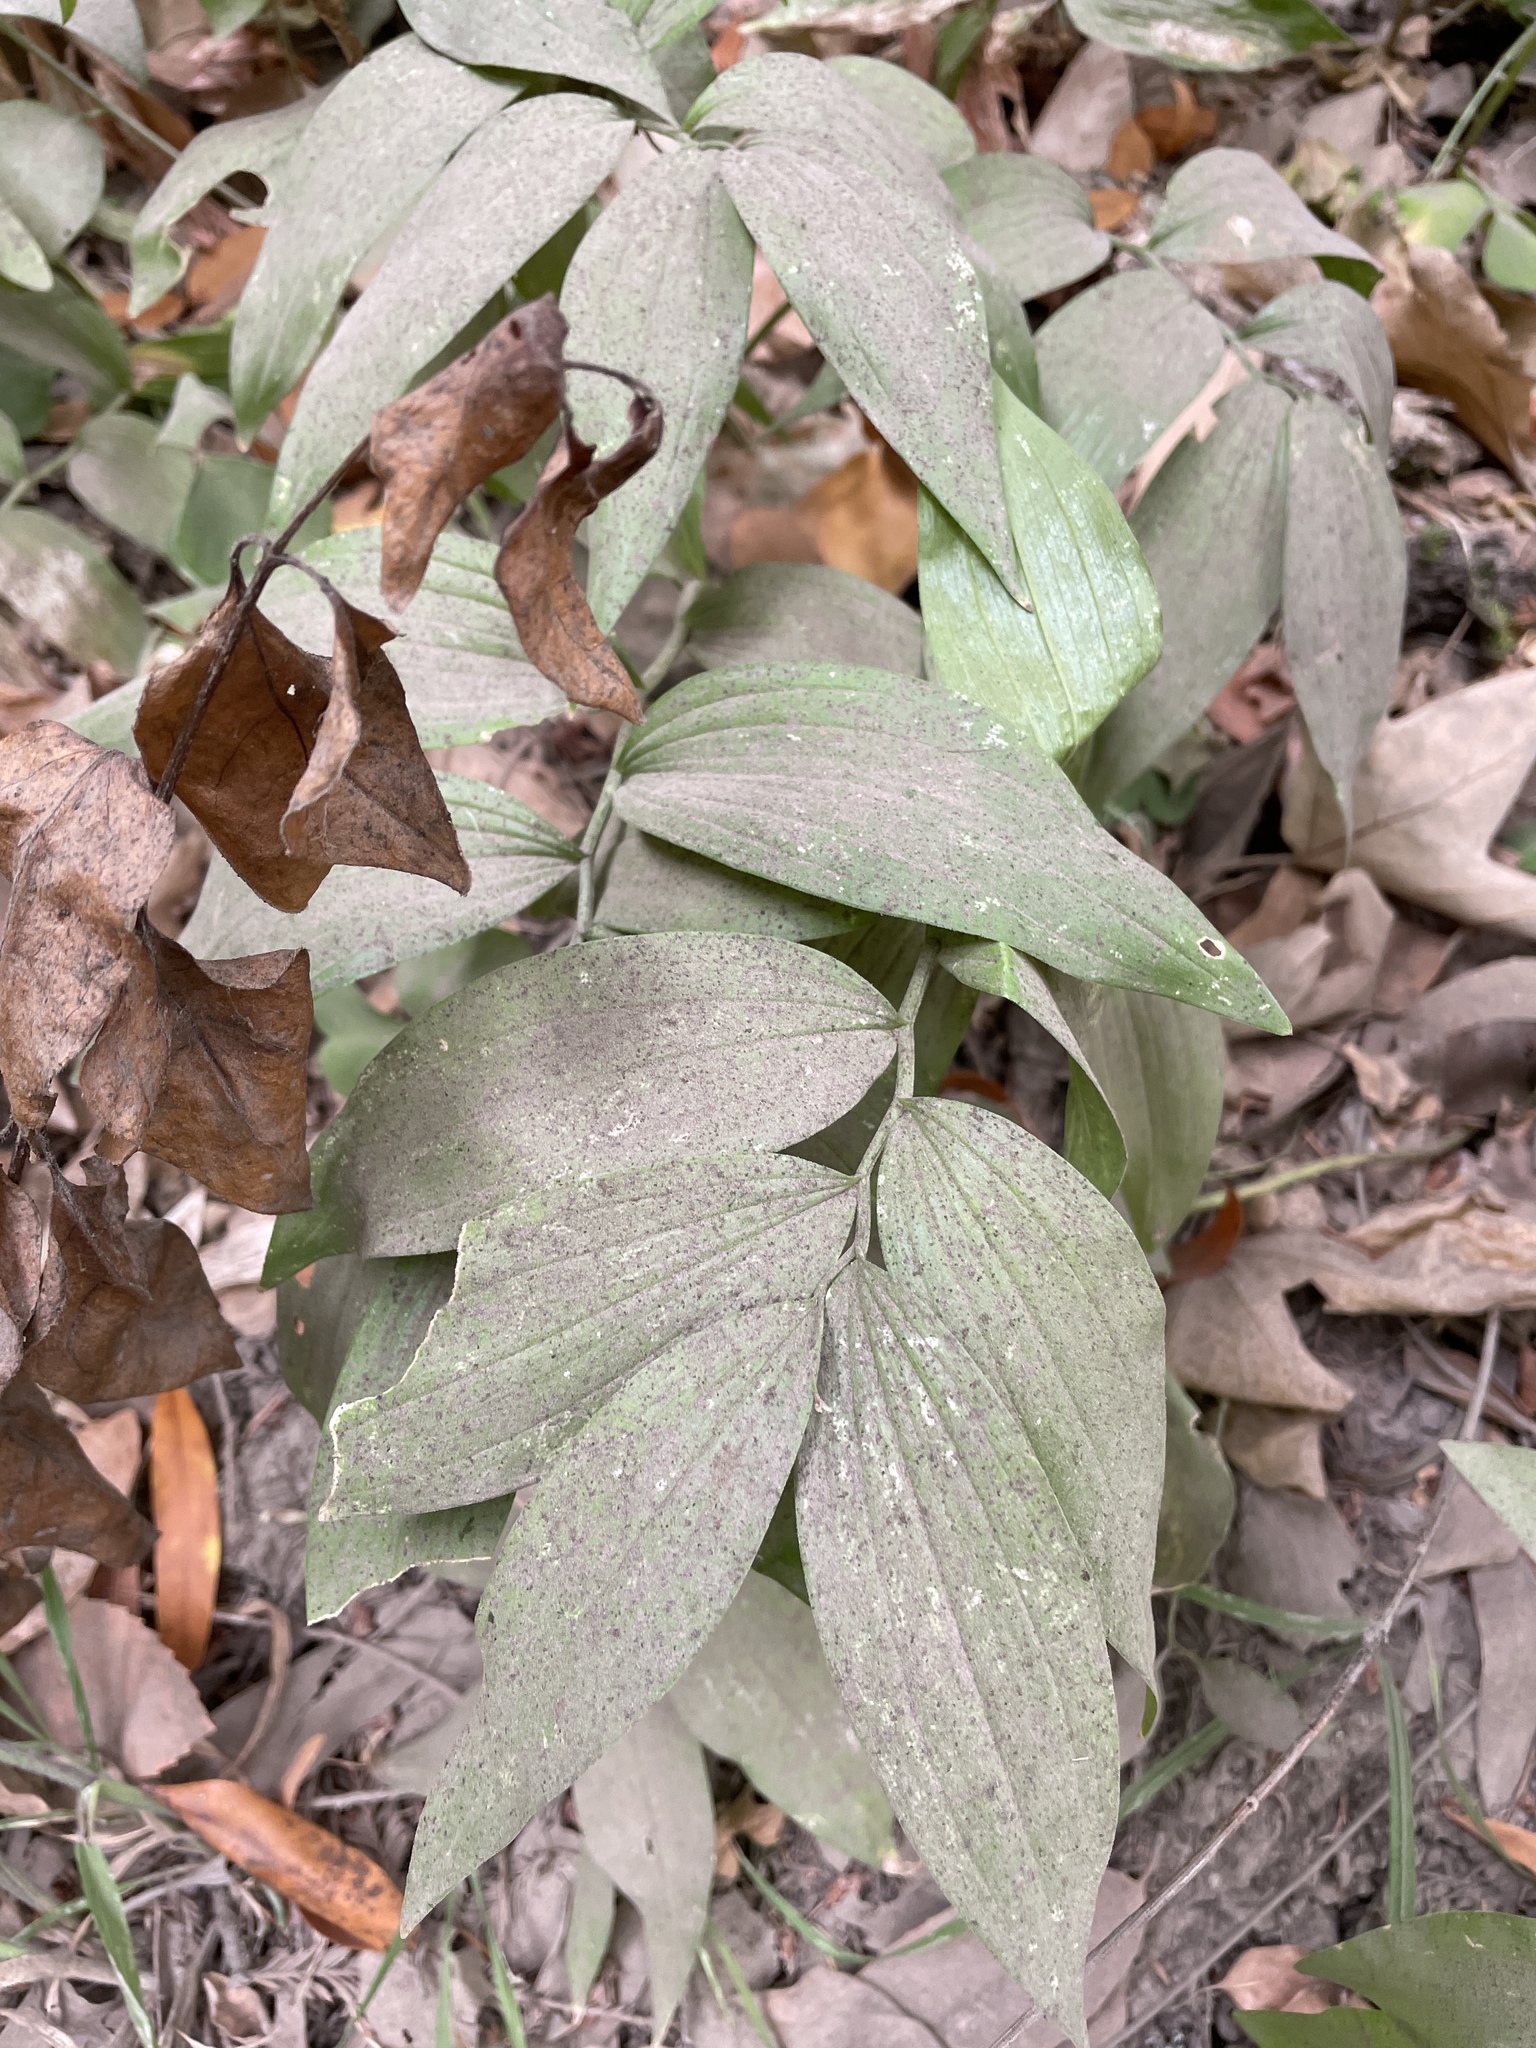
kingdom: Plantae
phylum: Tracheophyta
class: Liliopsida
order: Asparagales
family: Asparagaceae
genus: Maianthemum
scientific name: Maianthemum stellatum
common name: Little false solomon's seal
